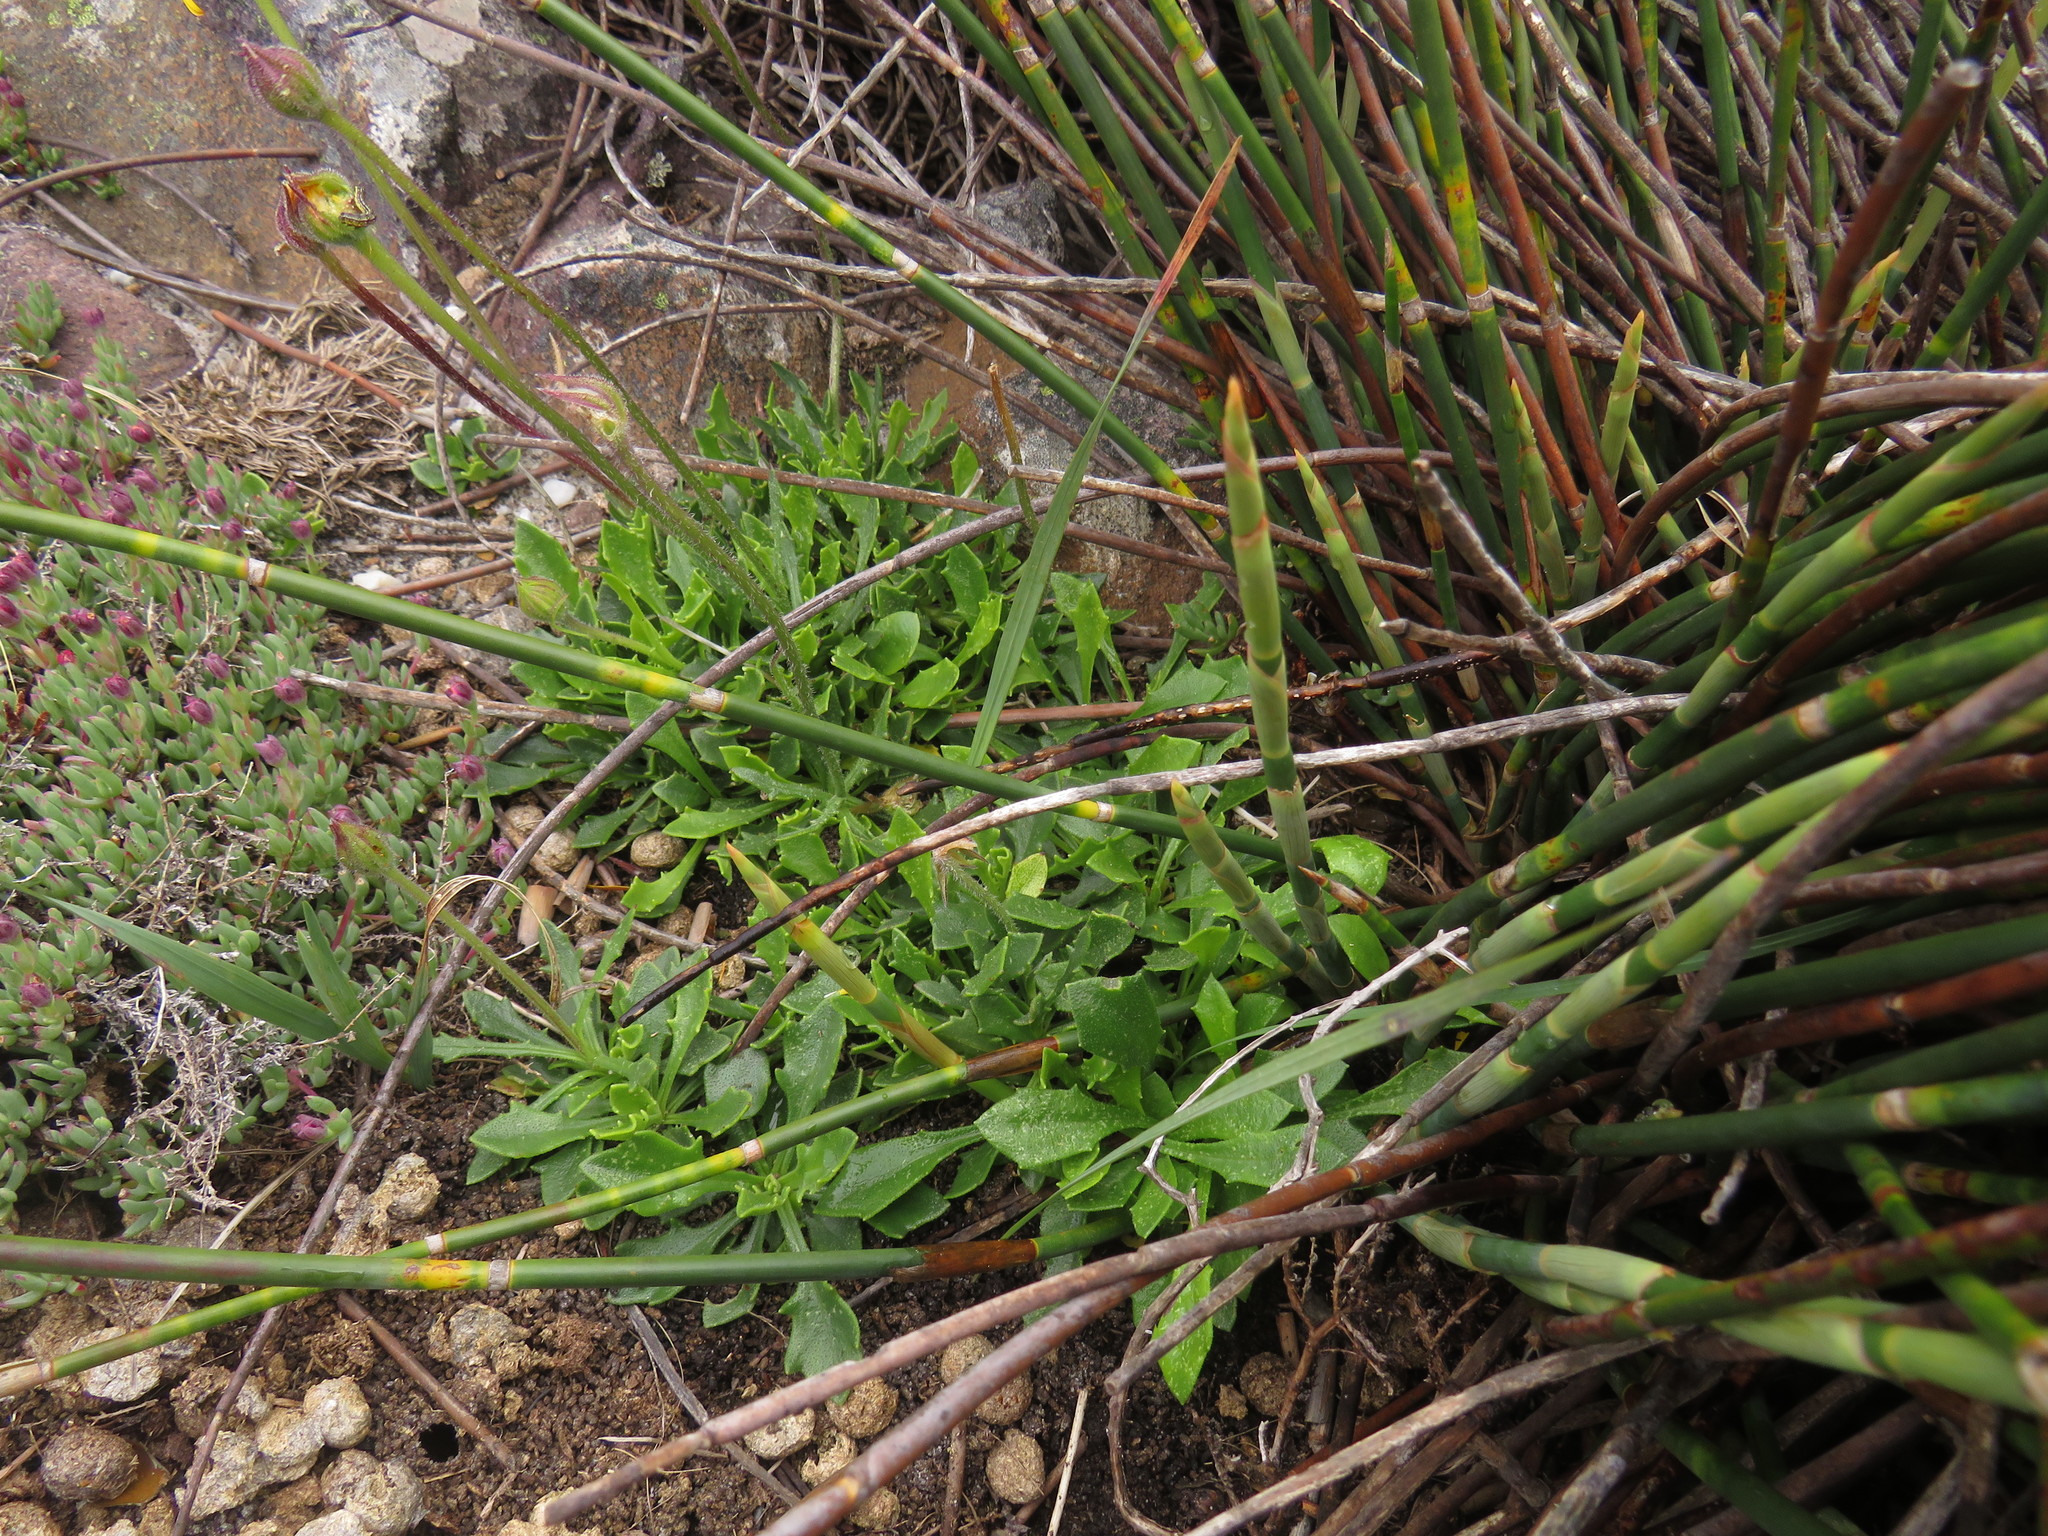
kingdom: Plantae
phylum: Tracheophyta
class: Magnoliopsida
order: Asterales
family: Asteraceae
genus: Dimorphotheca
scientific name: Dimorphotheca montana
